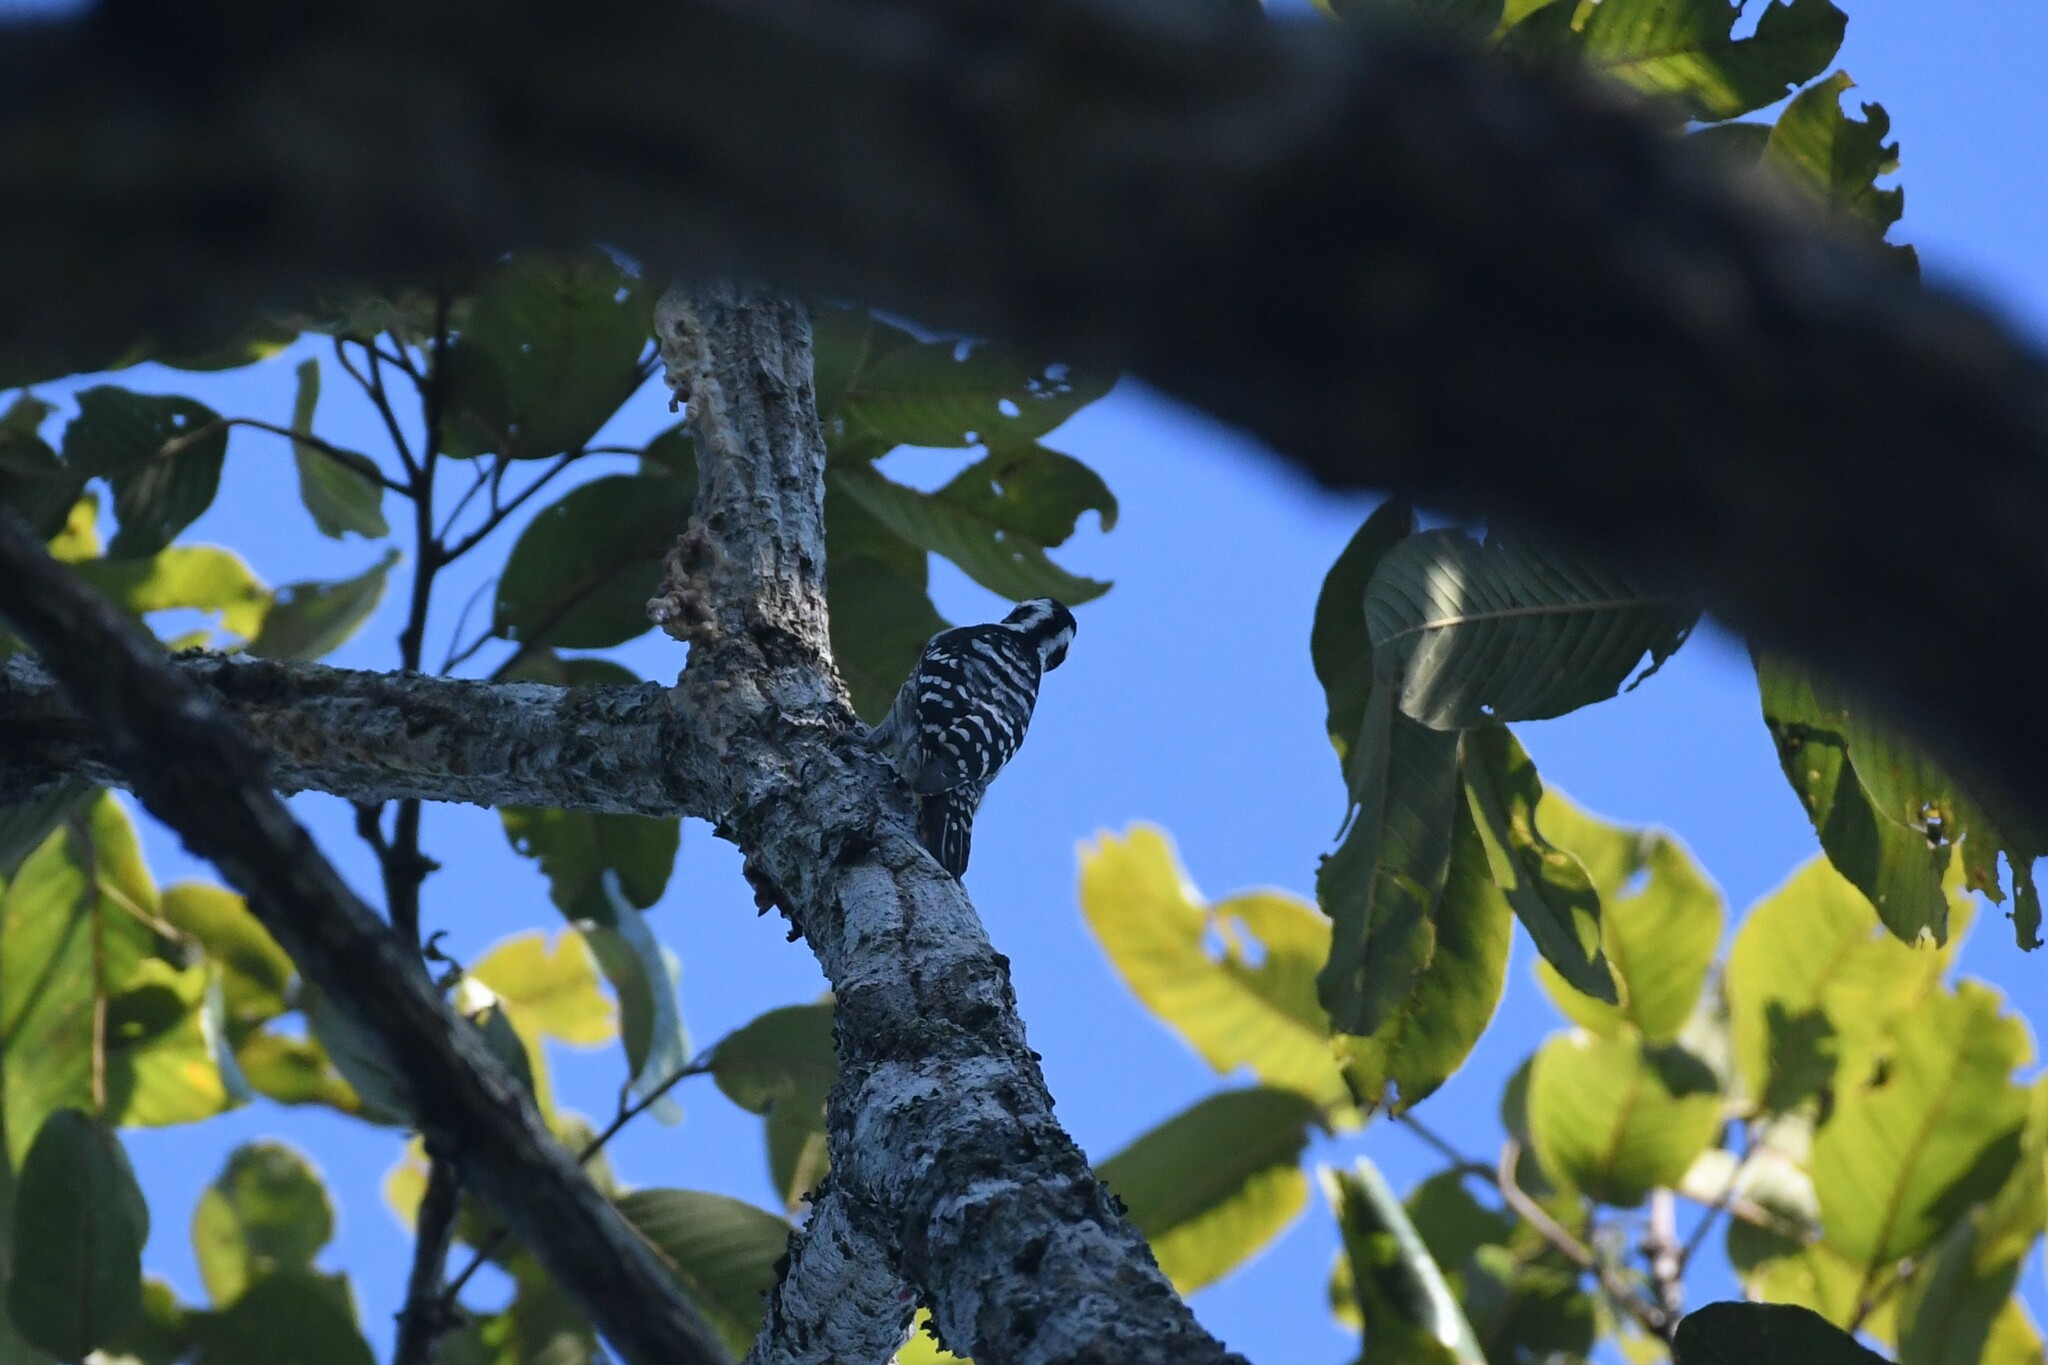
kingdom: Animalia
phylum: Chordata
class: Aves
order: Piciformes
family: Picidae
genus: Yungipicus
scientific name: Yungipicus canicapillus
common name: Grey-capped pygmy woodpecker
